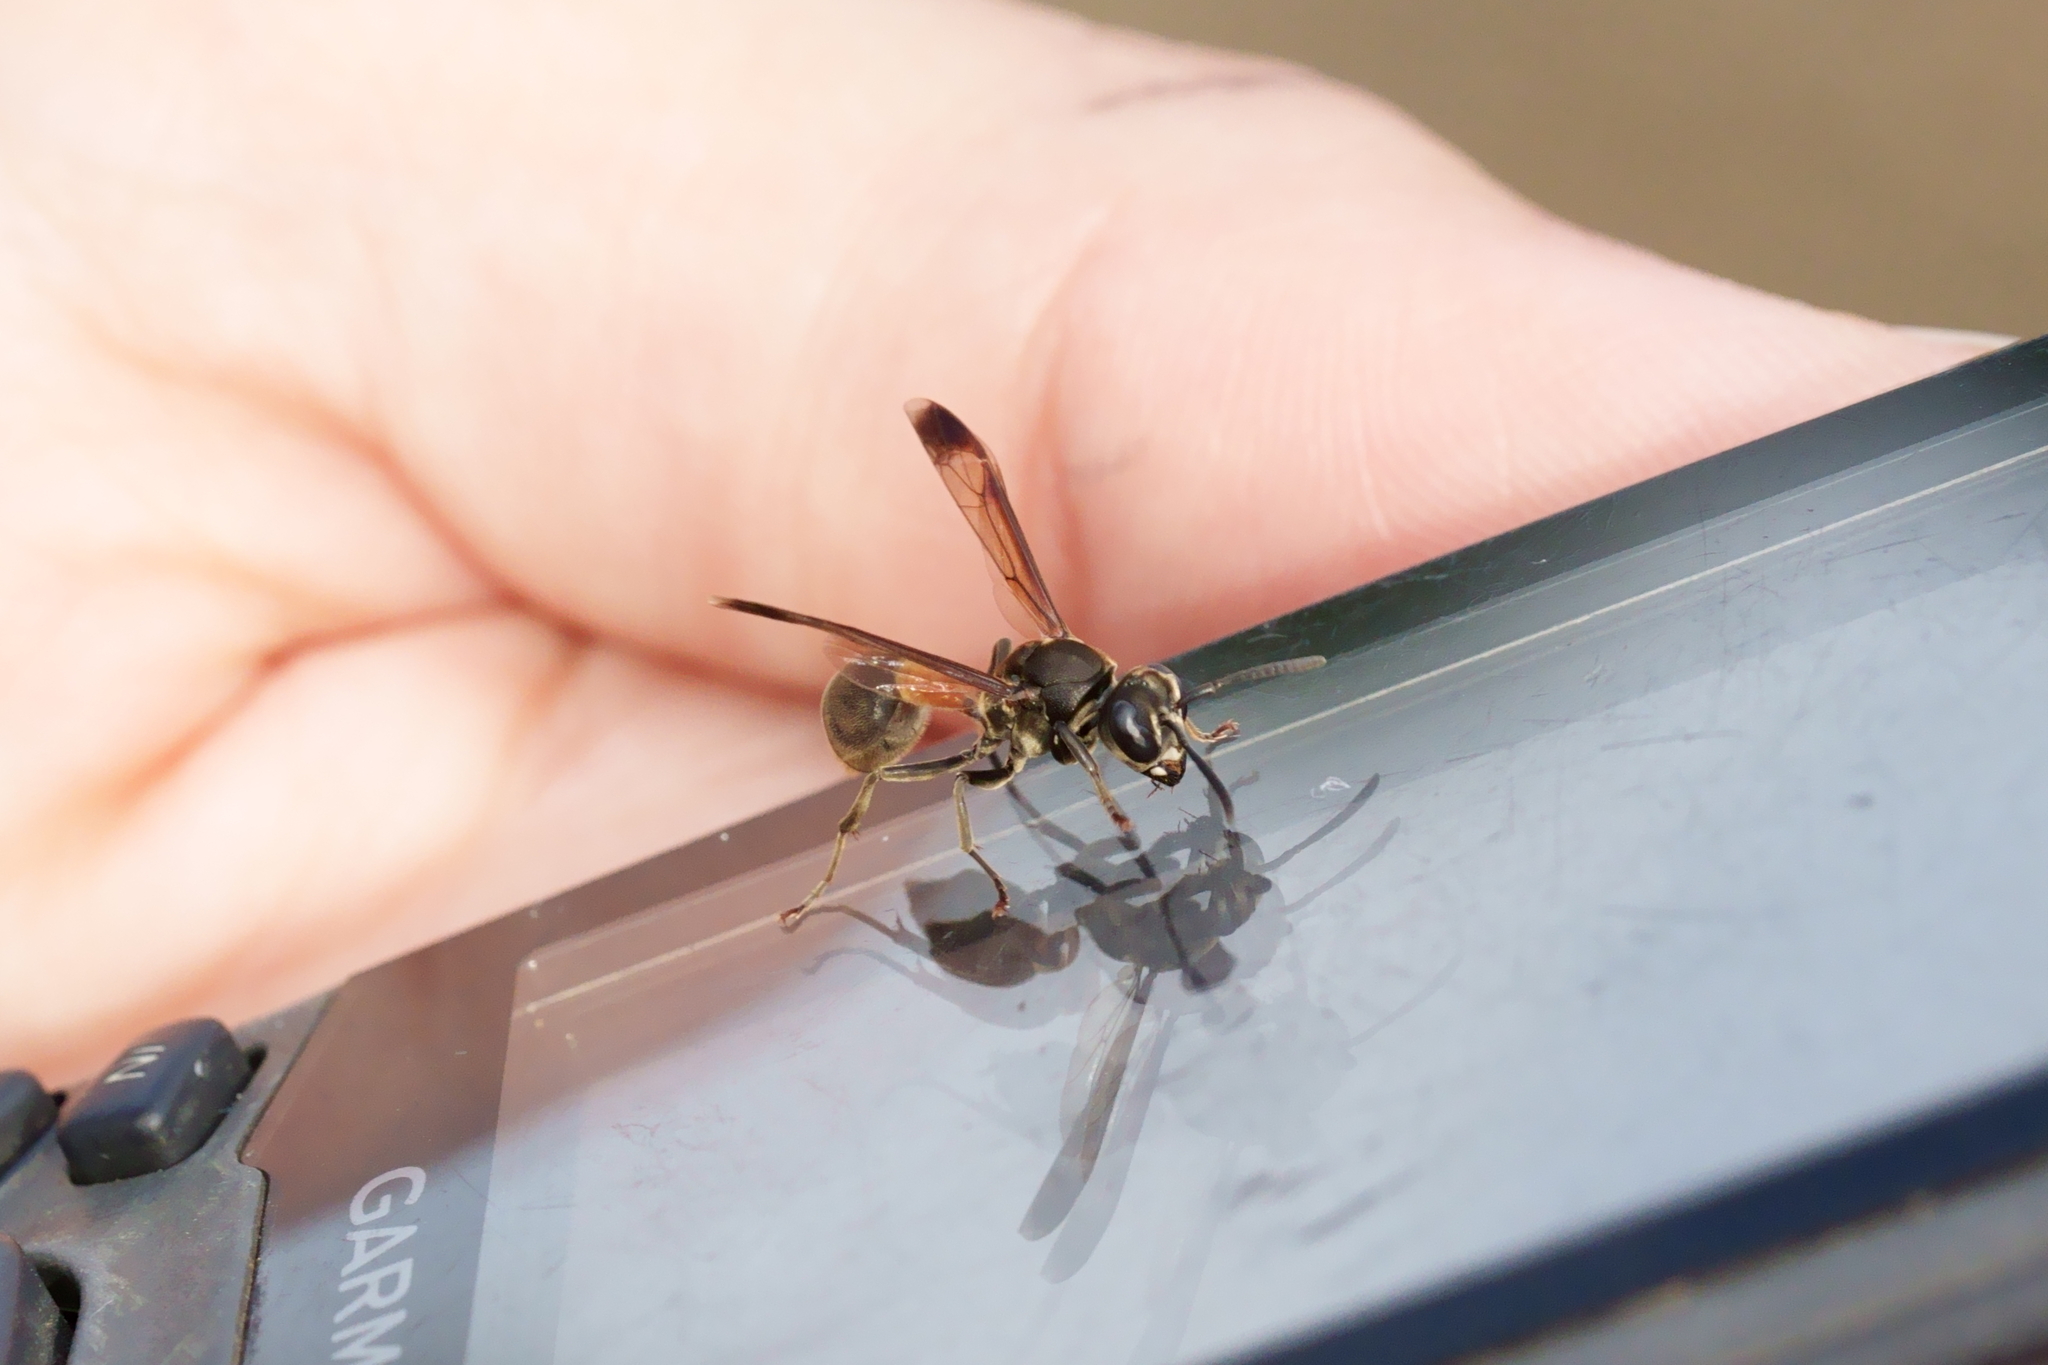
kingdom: Animalia
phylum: Arthropoda
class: Insecta
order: Hymenoptera
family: Vespidae
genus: Ropalidia
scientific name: Ropalidia sumatrae
